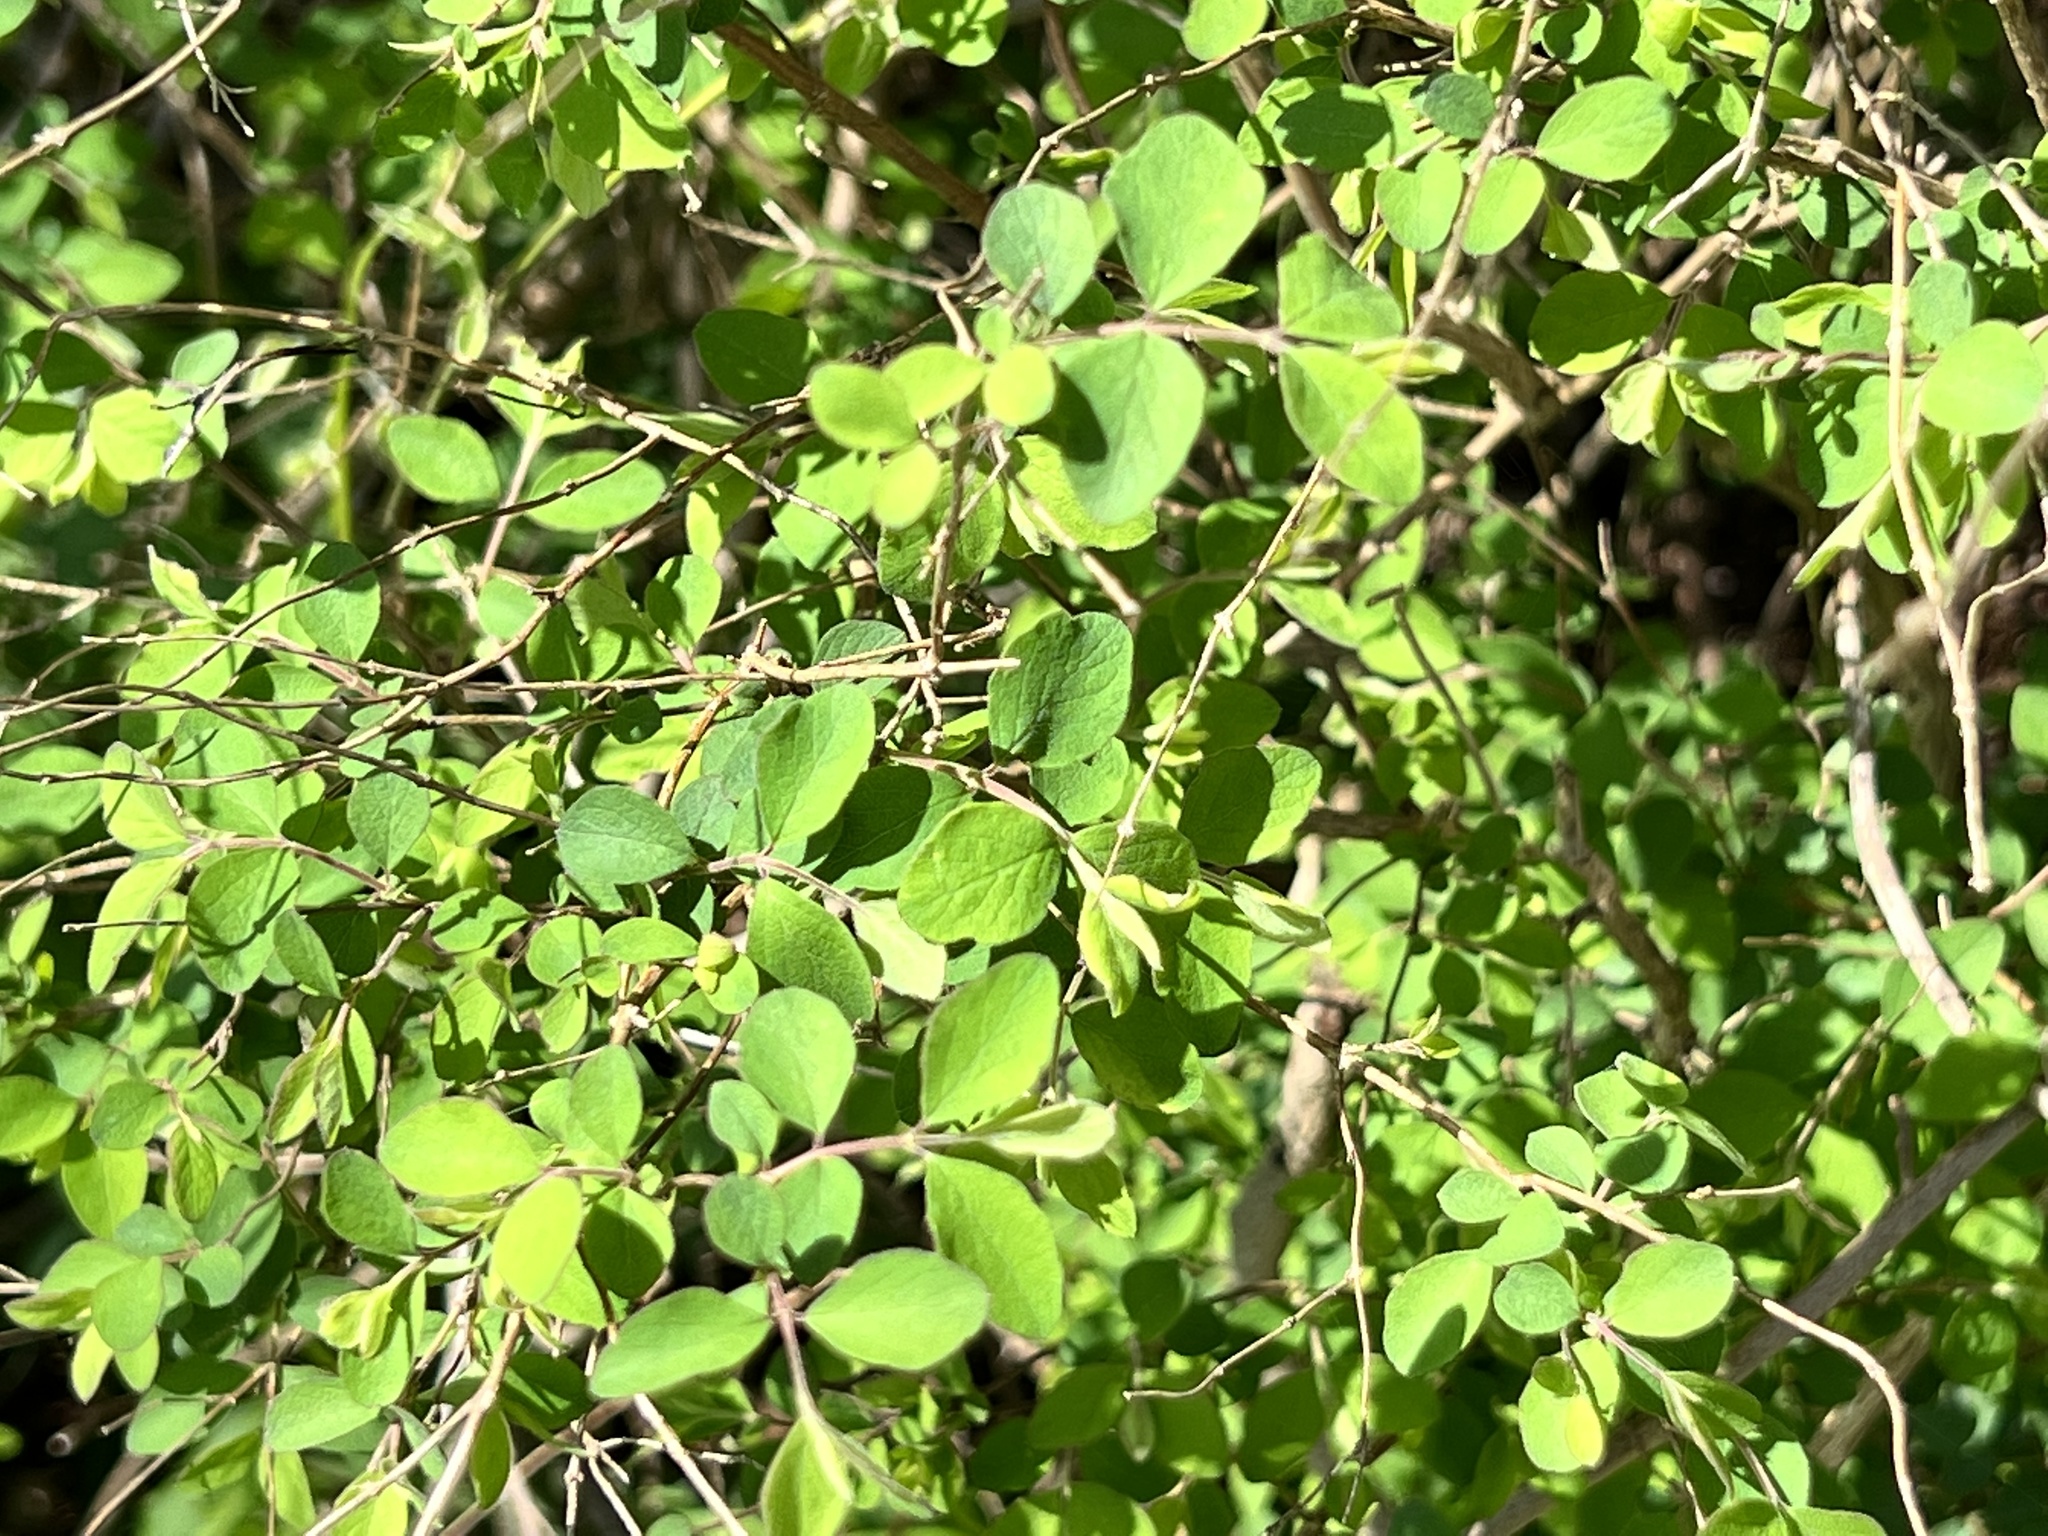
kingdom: Plantae
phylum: Tracheophyta
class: Magnoliopsida
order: Dipsacales
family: Caprifoliaceae
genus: Symphoricarpos
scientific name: Symphoricarpos orbiculatus
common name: Coralberry
